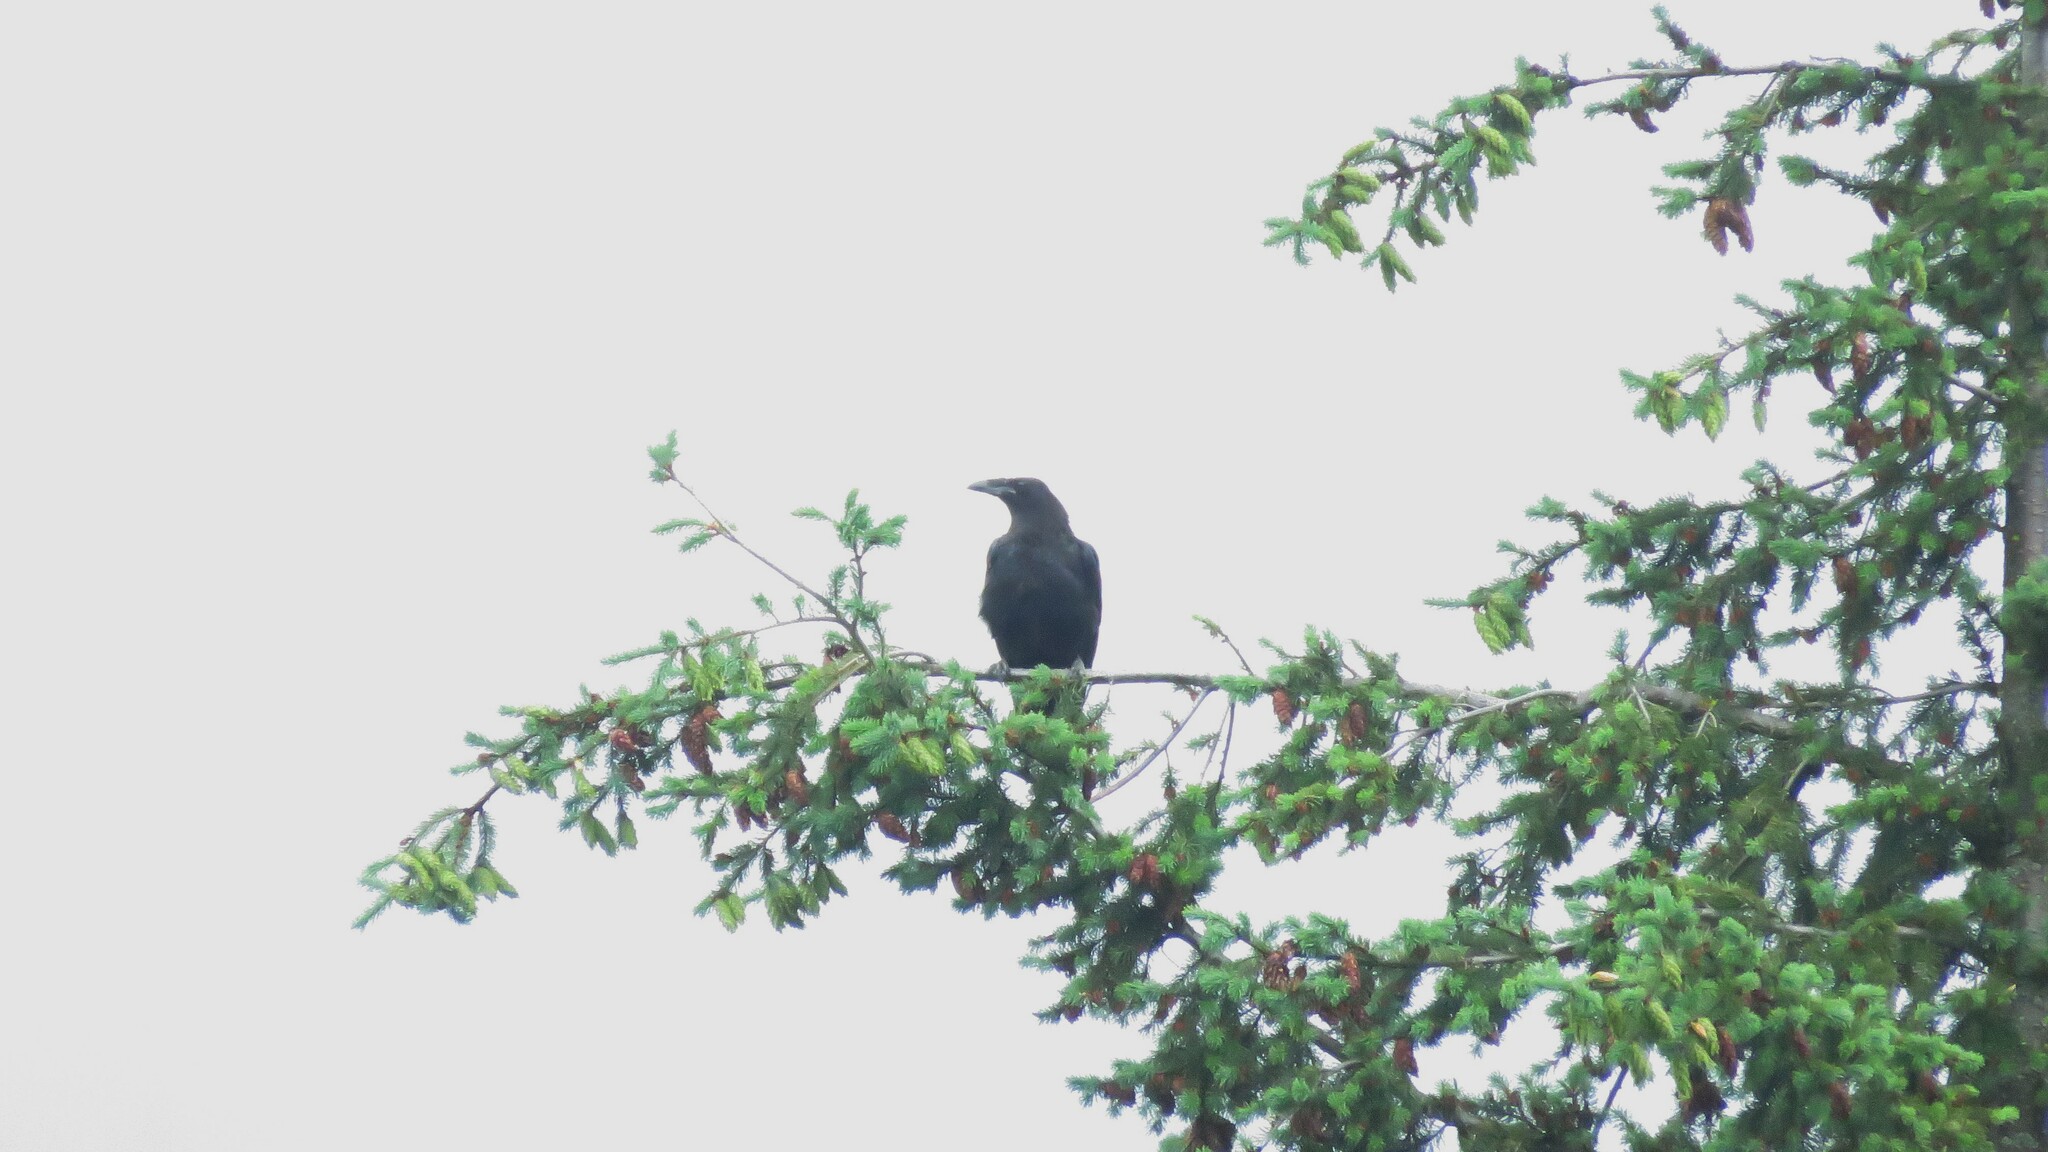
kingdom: Animalia
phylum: Chordata
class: Aves
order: Passeriformes
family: Corvidae
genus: Corvus
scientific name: Corvus corax
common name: Common raven
